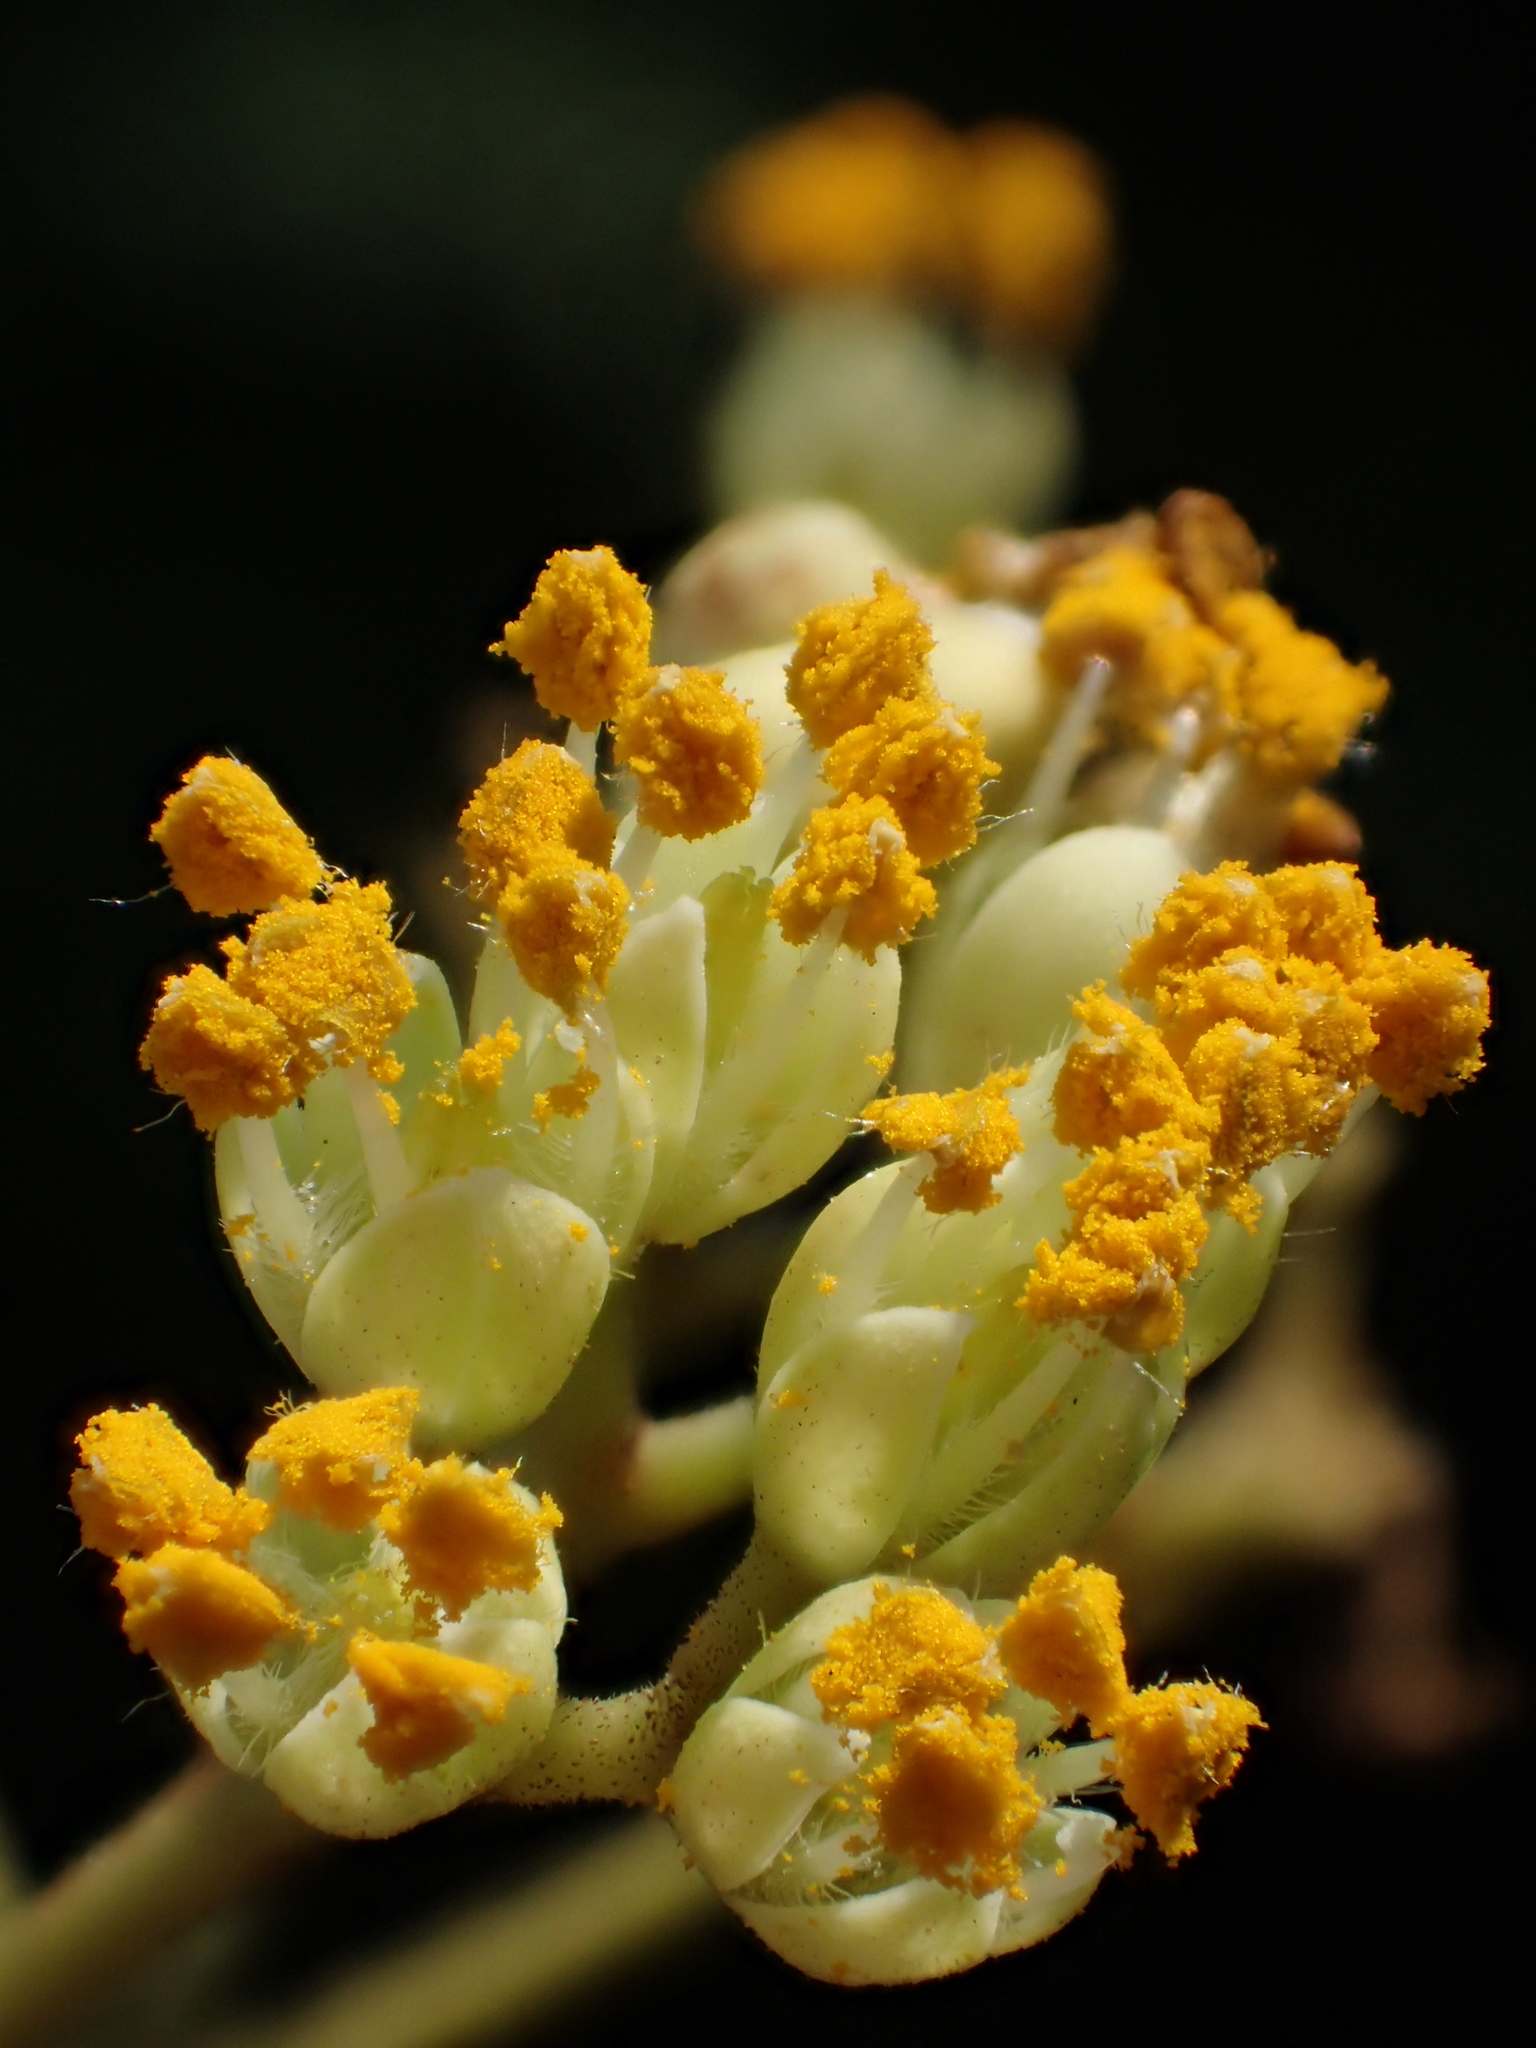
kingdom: Plantae
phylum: Tracheophyta
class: Magnoliopsida
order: Sapindales
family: Rutaceae
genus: Tetradium
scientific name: Tetradium glabrifolium
